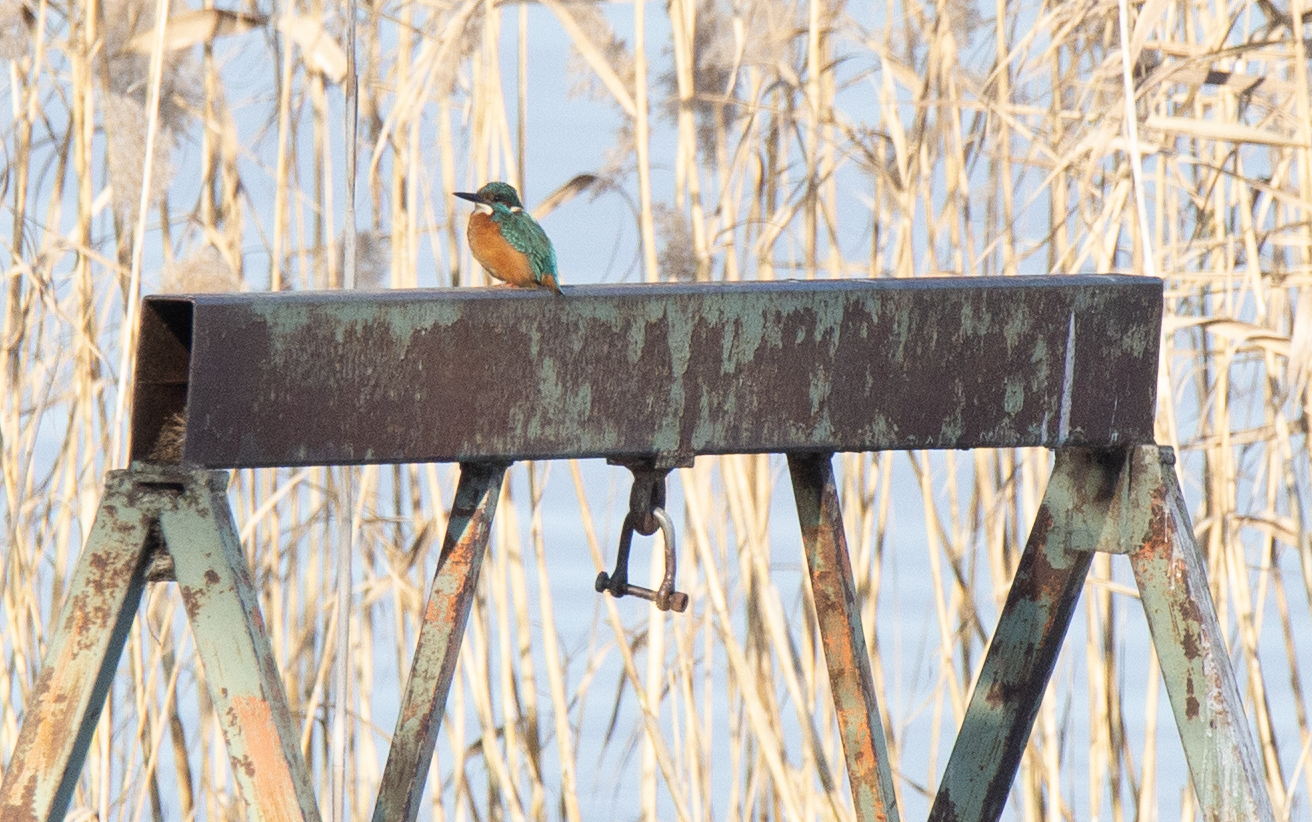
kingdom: Animalia
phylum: Chordata
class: Aves
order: Coraciiformes
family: Alcedinidae
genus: Alcedo
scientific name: Alcedo atthis
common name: Common kingfisher
